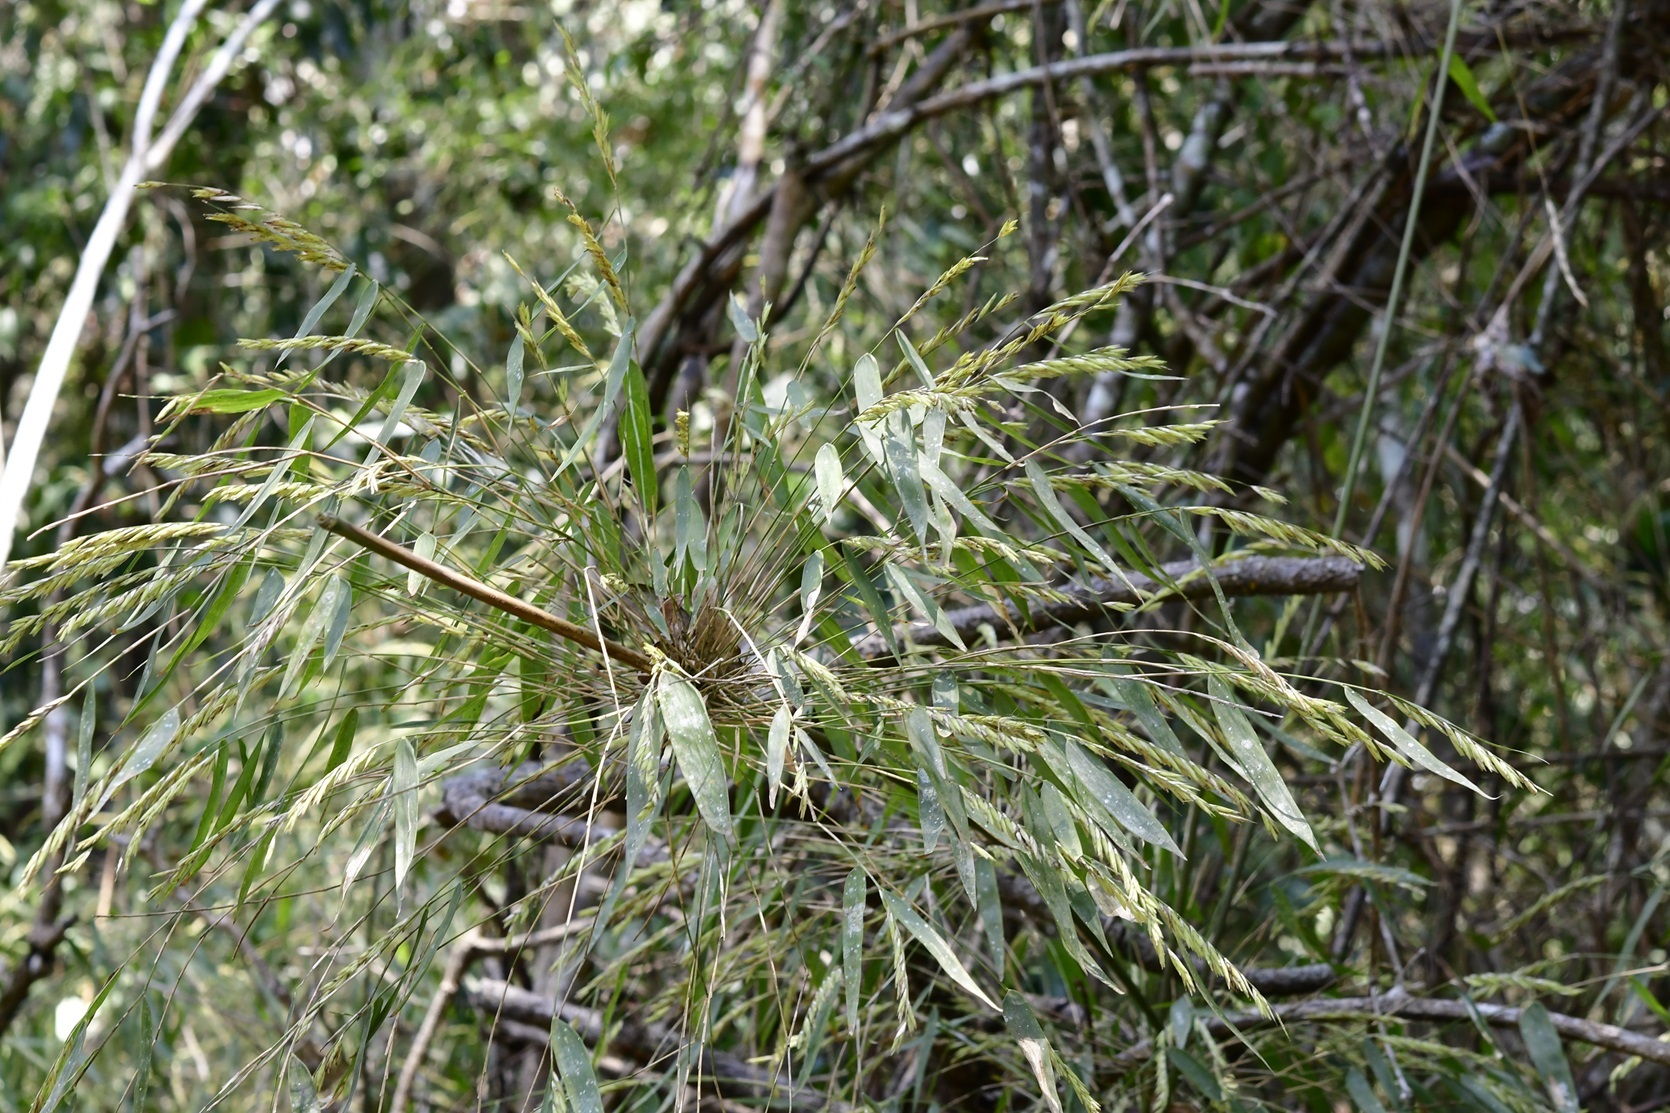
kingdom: Plantae
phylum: Tracheophyta
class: Liliopsida
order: Poales
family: Poaceae
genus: Rhipidocladum
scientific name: Rhipidocladum pittieri
